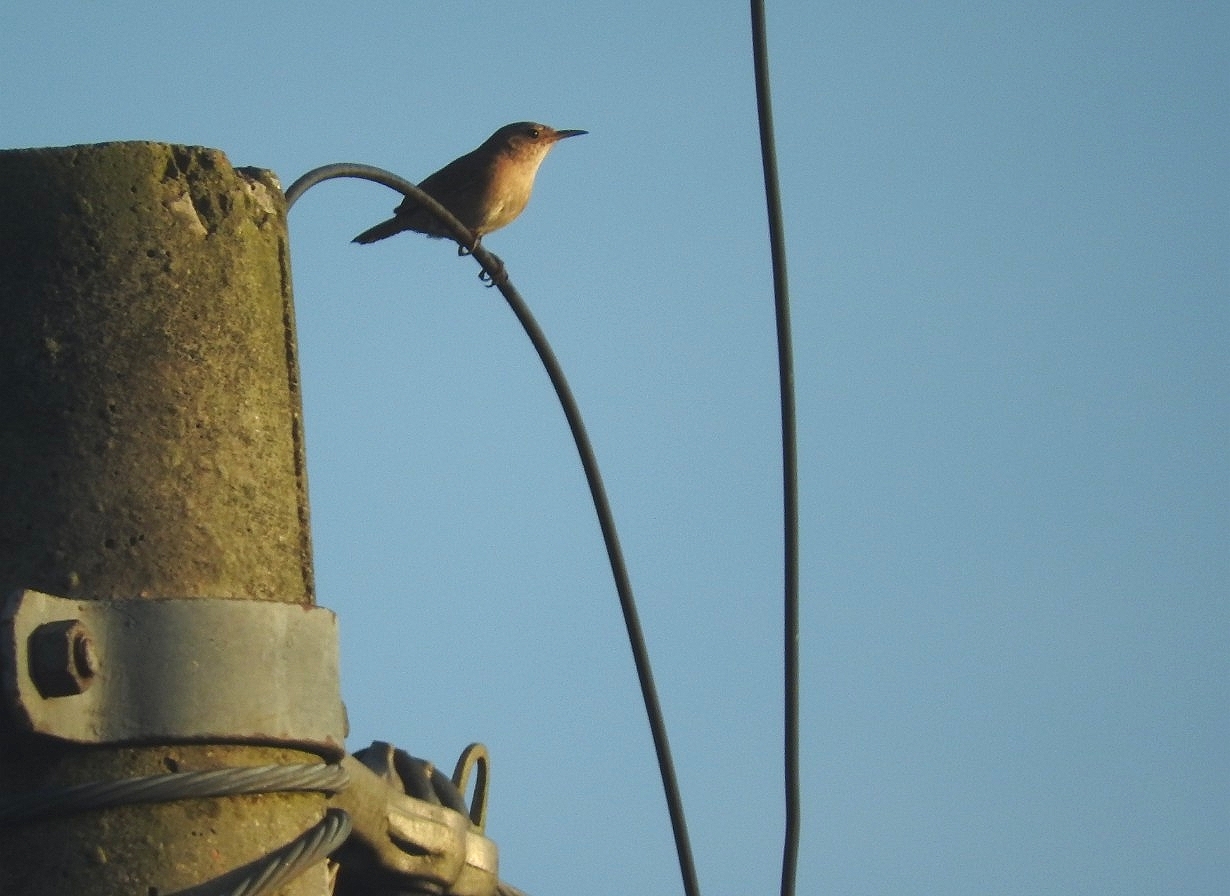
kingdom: Animalia
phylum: Chordata
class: Aves
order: Passeriformes
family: Troglodytidae
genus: Troglodytes
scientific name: Troglodytes aedon
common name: House wren
